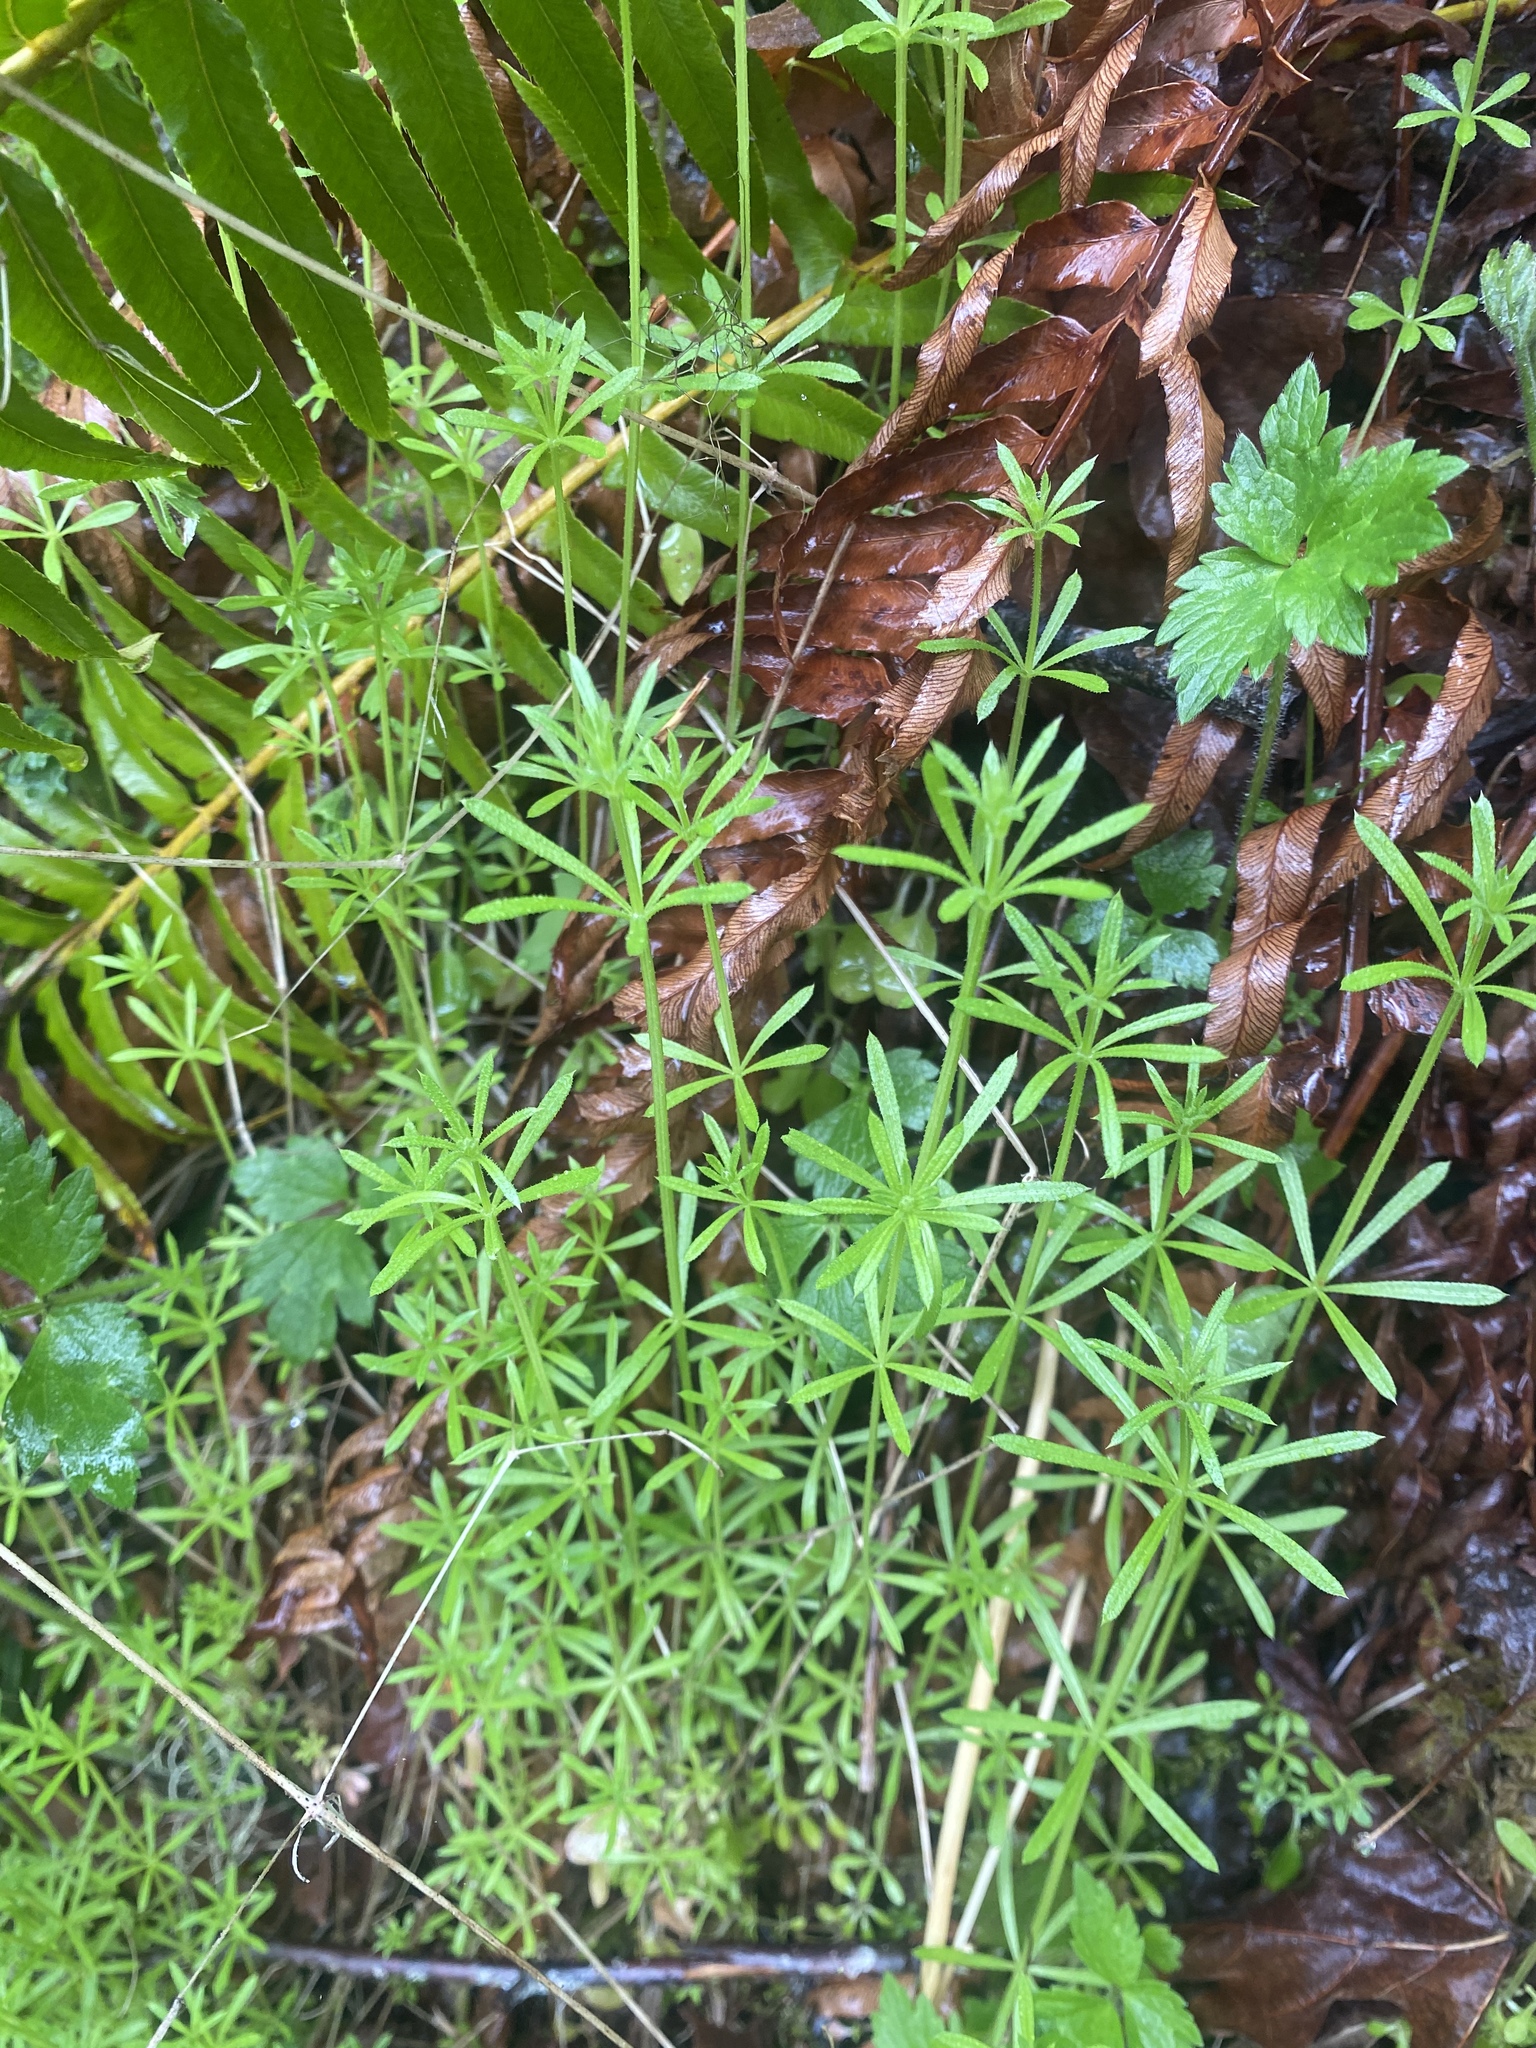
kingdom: Plantae
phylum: Tracheophyta
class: Magnoliopsida
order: Gentianales
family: Rubiaceae
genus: Galium
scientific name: Galium aparine
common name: Cleavers
